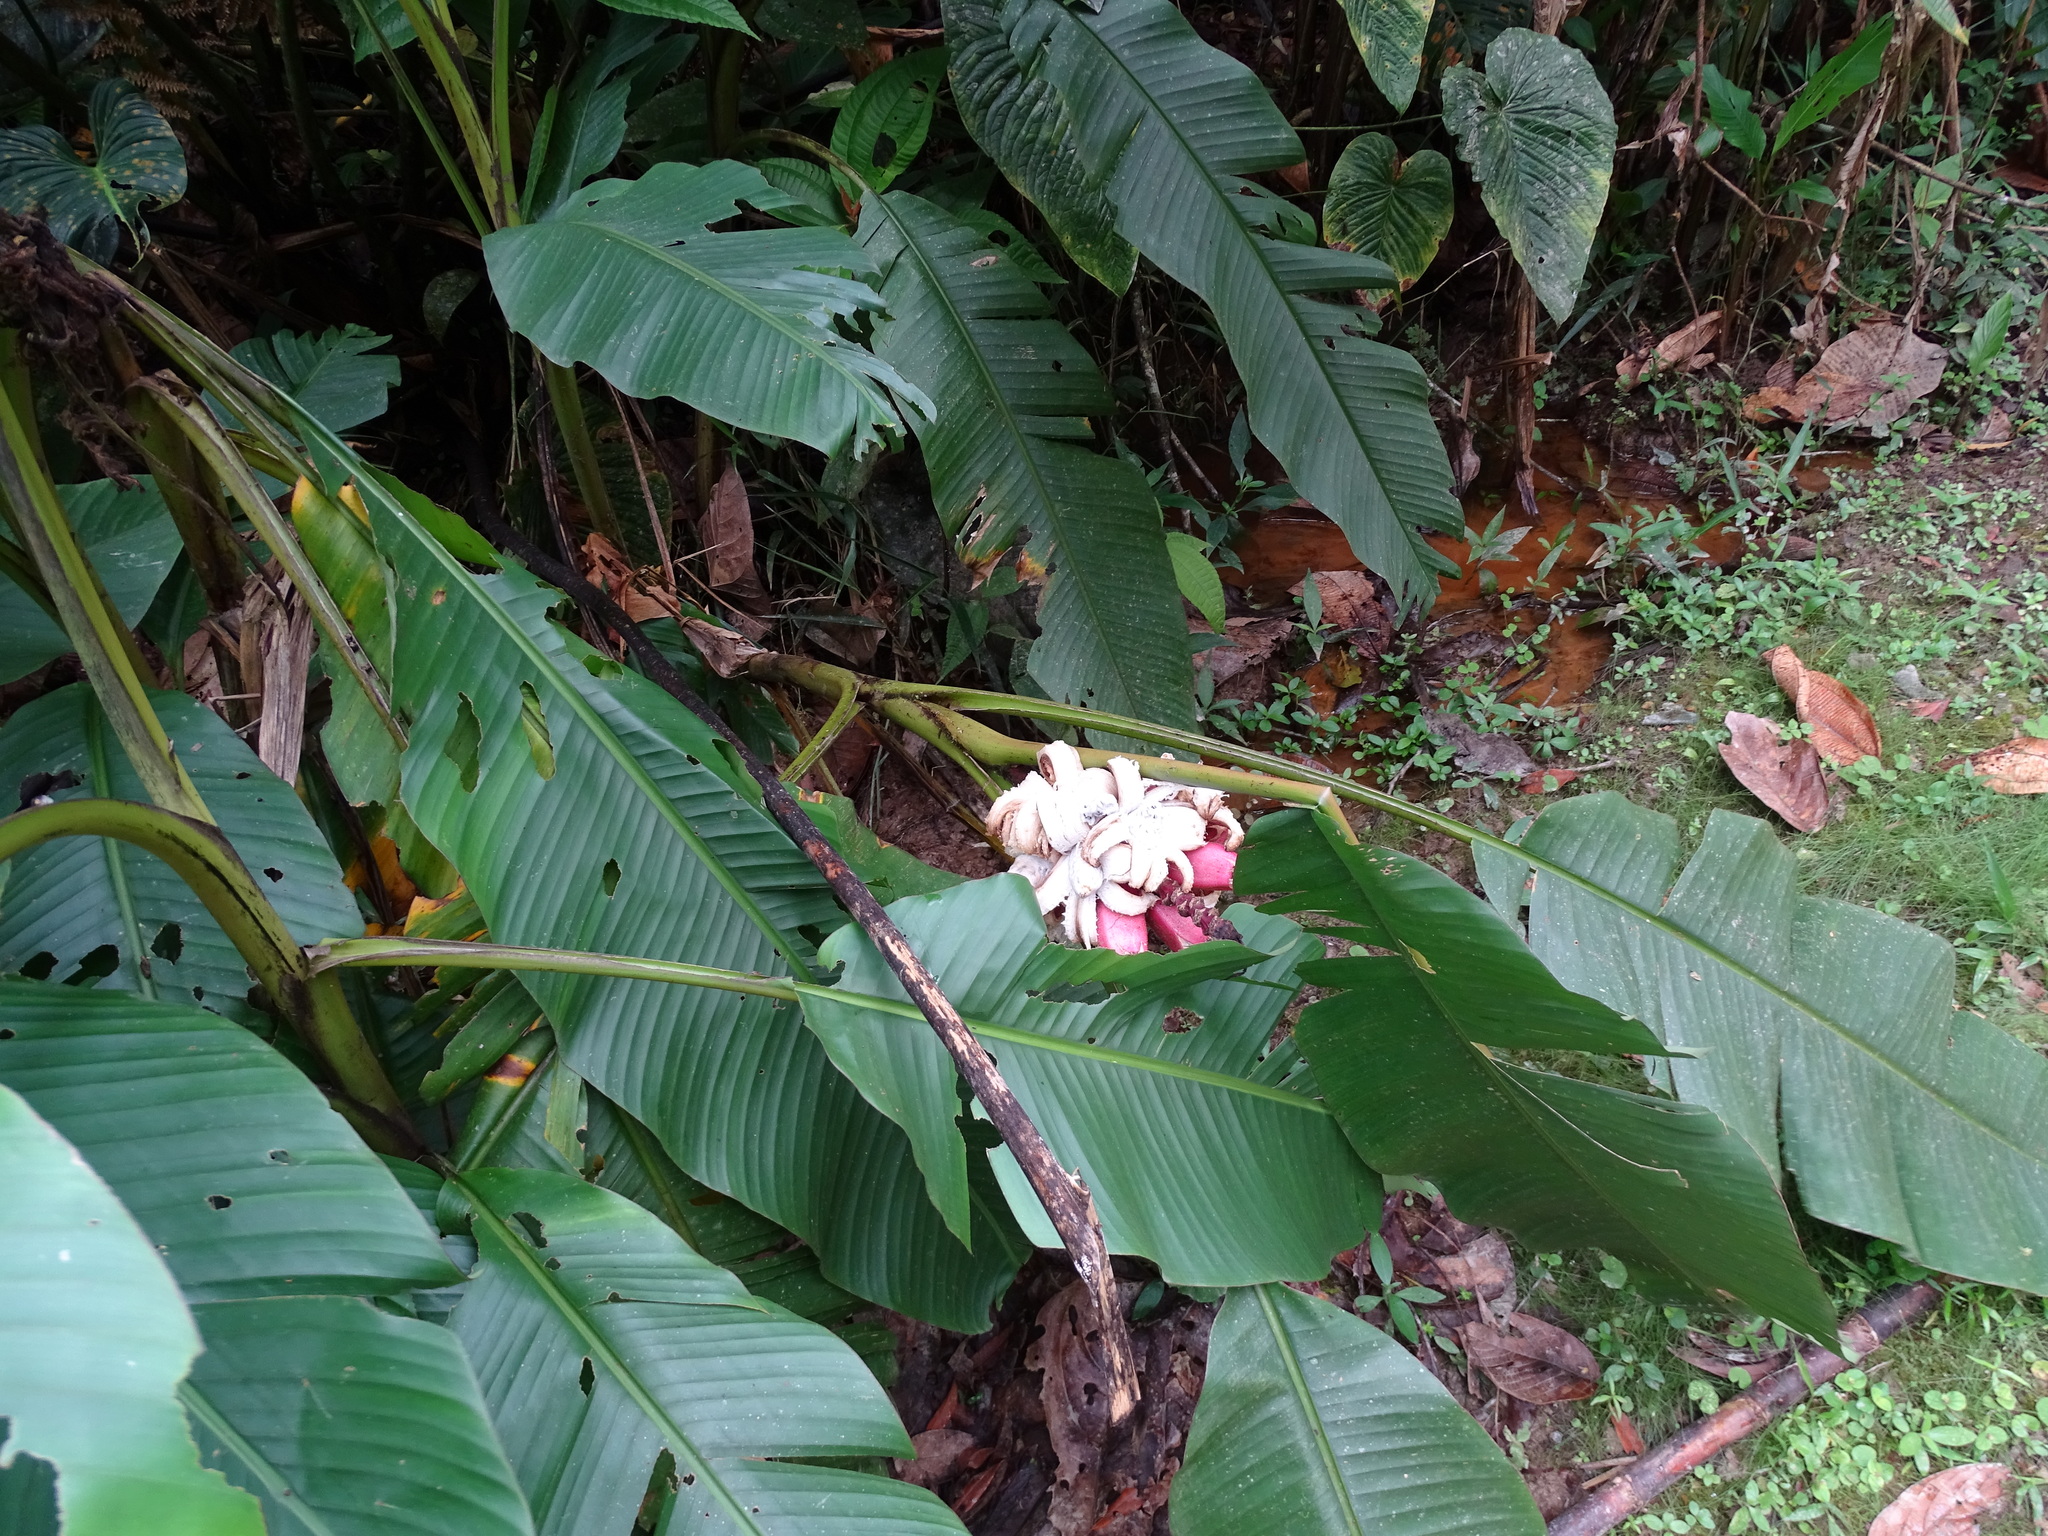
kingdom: Plantae
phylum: Tracheophyta
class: Liliopsida
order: Zingiberales
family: Musaceae
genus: Musa
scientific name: Musa velutina
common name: Pink velvet banana
